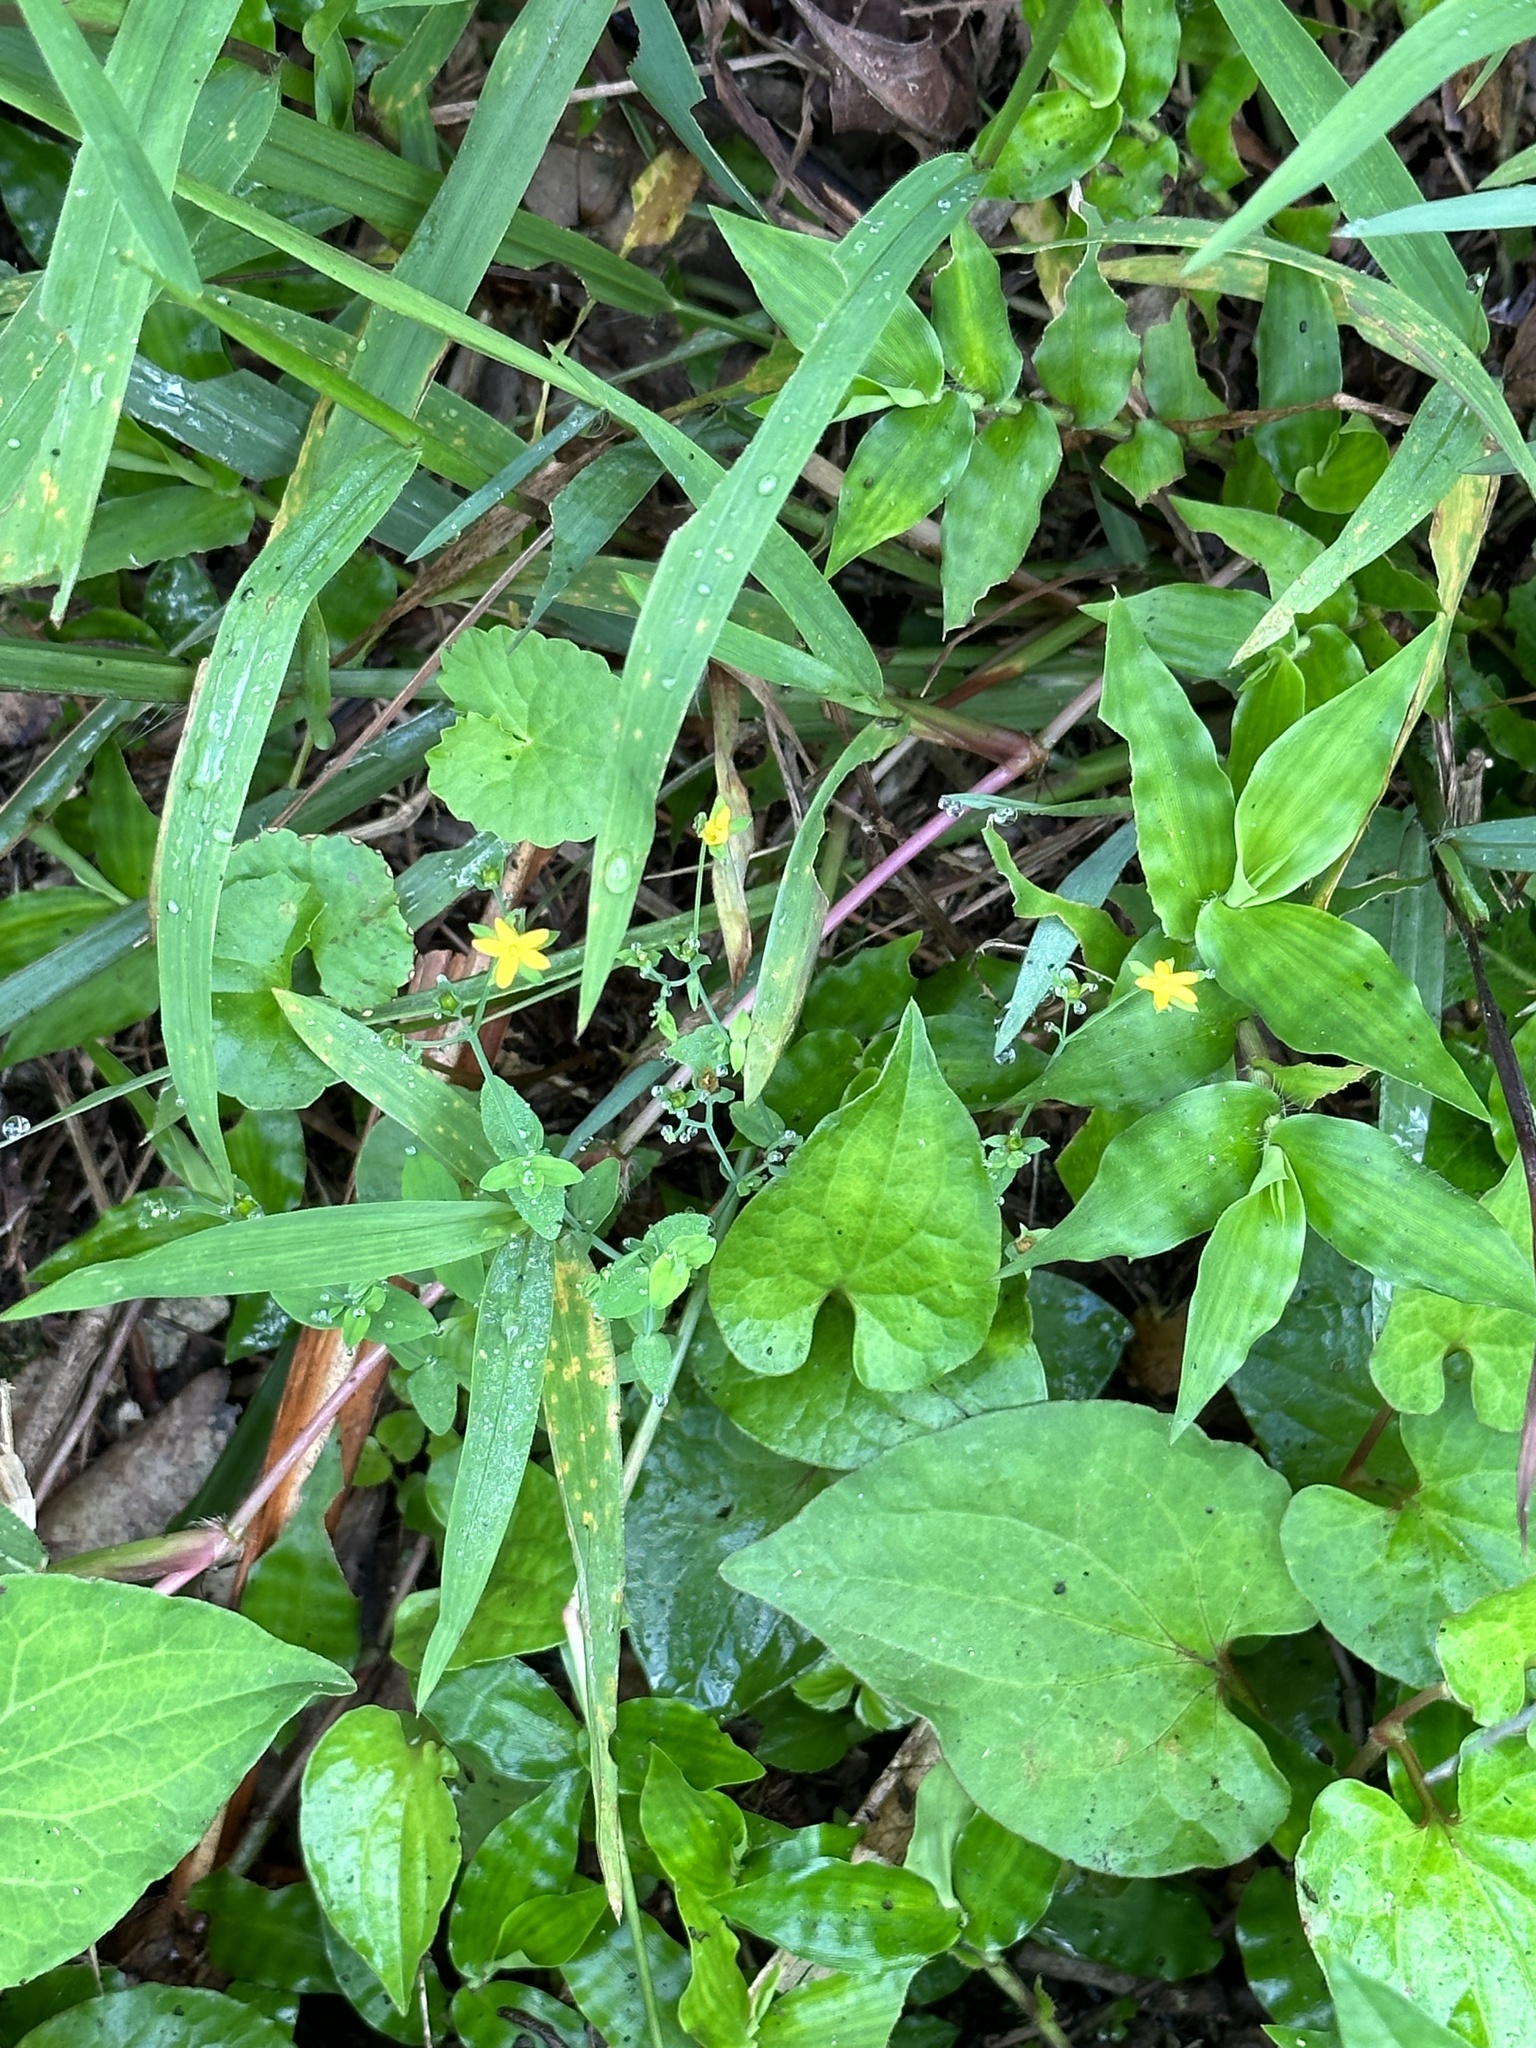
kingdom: Plantae
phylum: Tracheophyta
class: Magnoliopsida
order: Piperales
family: Saururaceae
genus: Houttuynia
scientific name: Houttuynia cordata
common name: Chameleon
